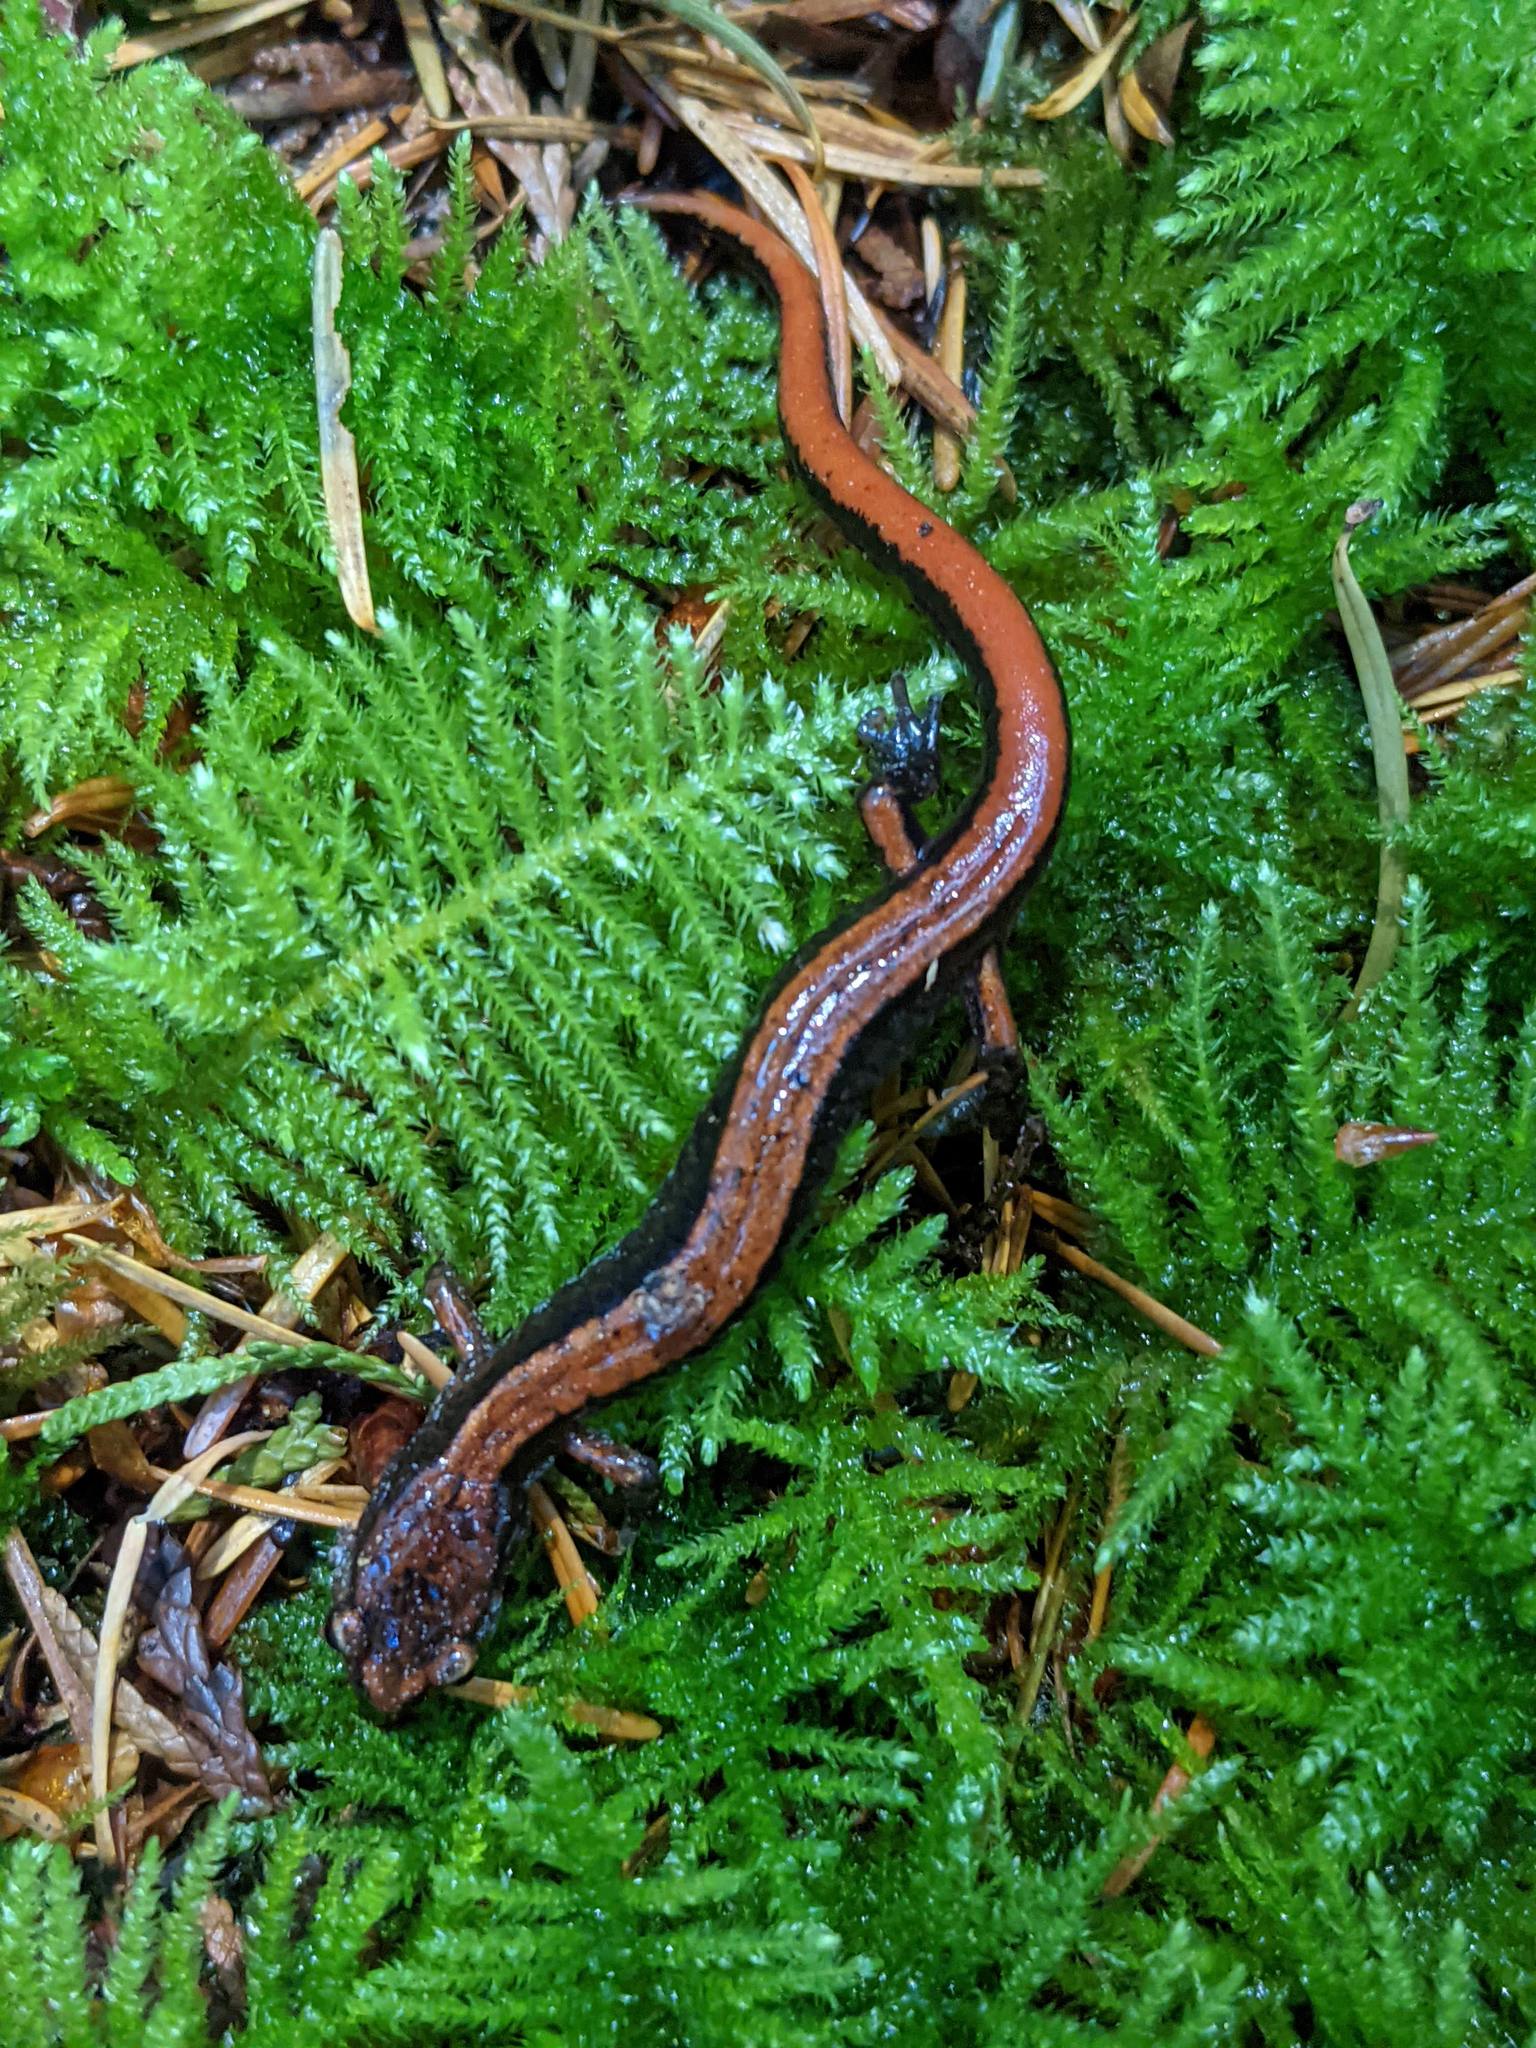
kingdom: Animalia
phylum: Chordata
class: Amphibia
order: Caudata
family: Plethodontidae
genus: Plethodon
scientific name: Plethodon vehiculum
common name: Western red-backed salamander
